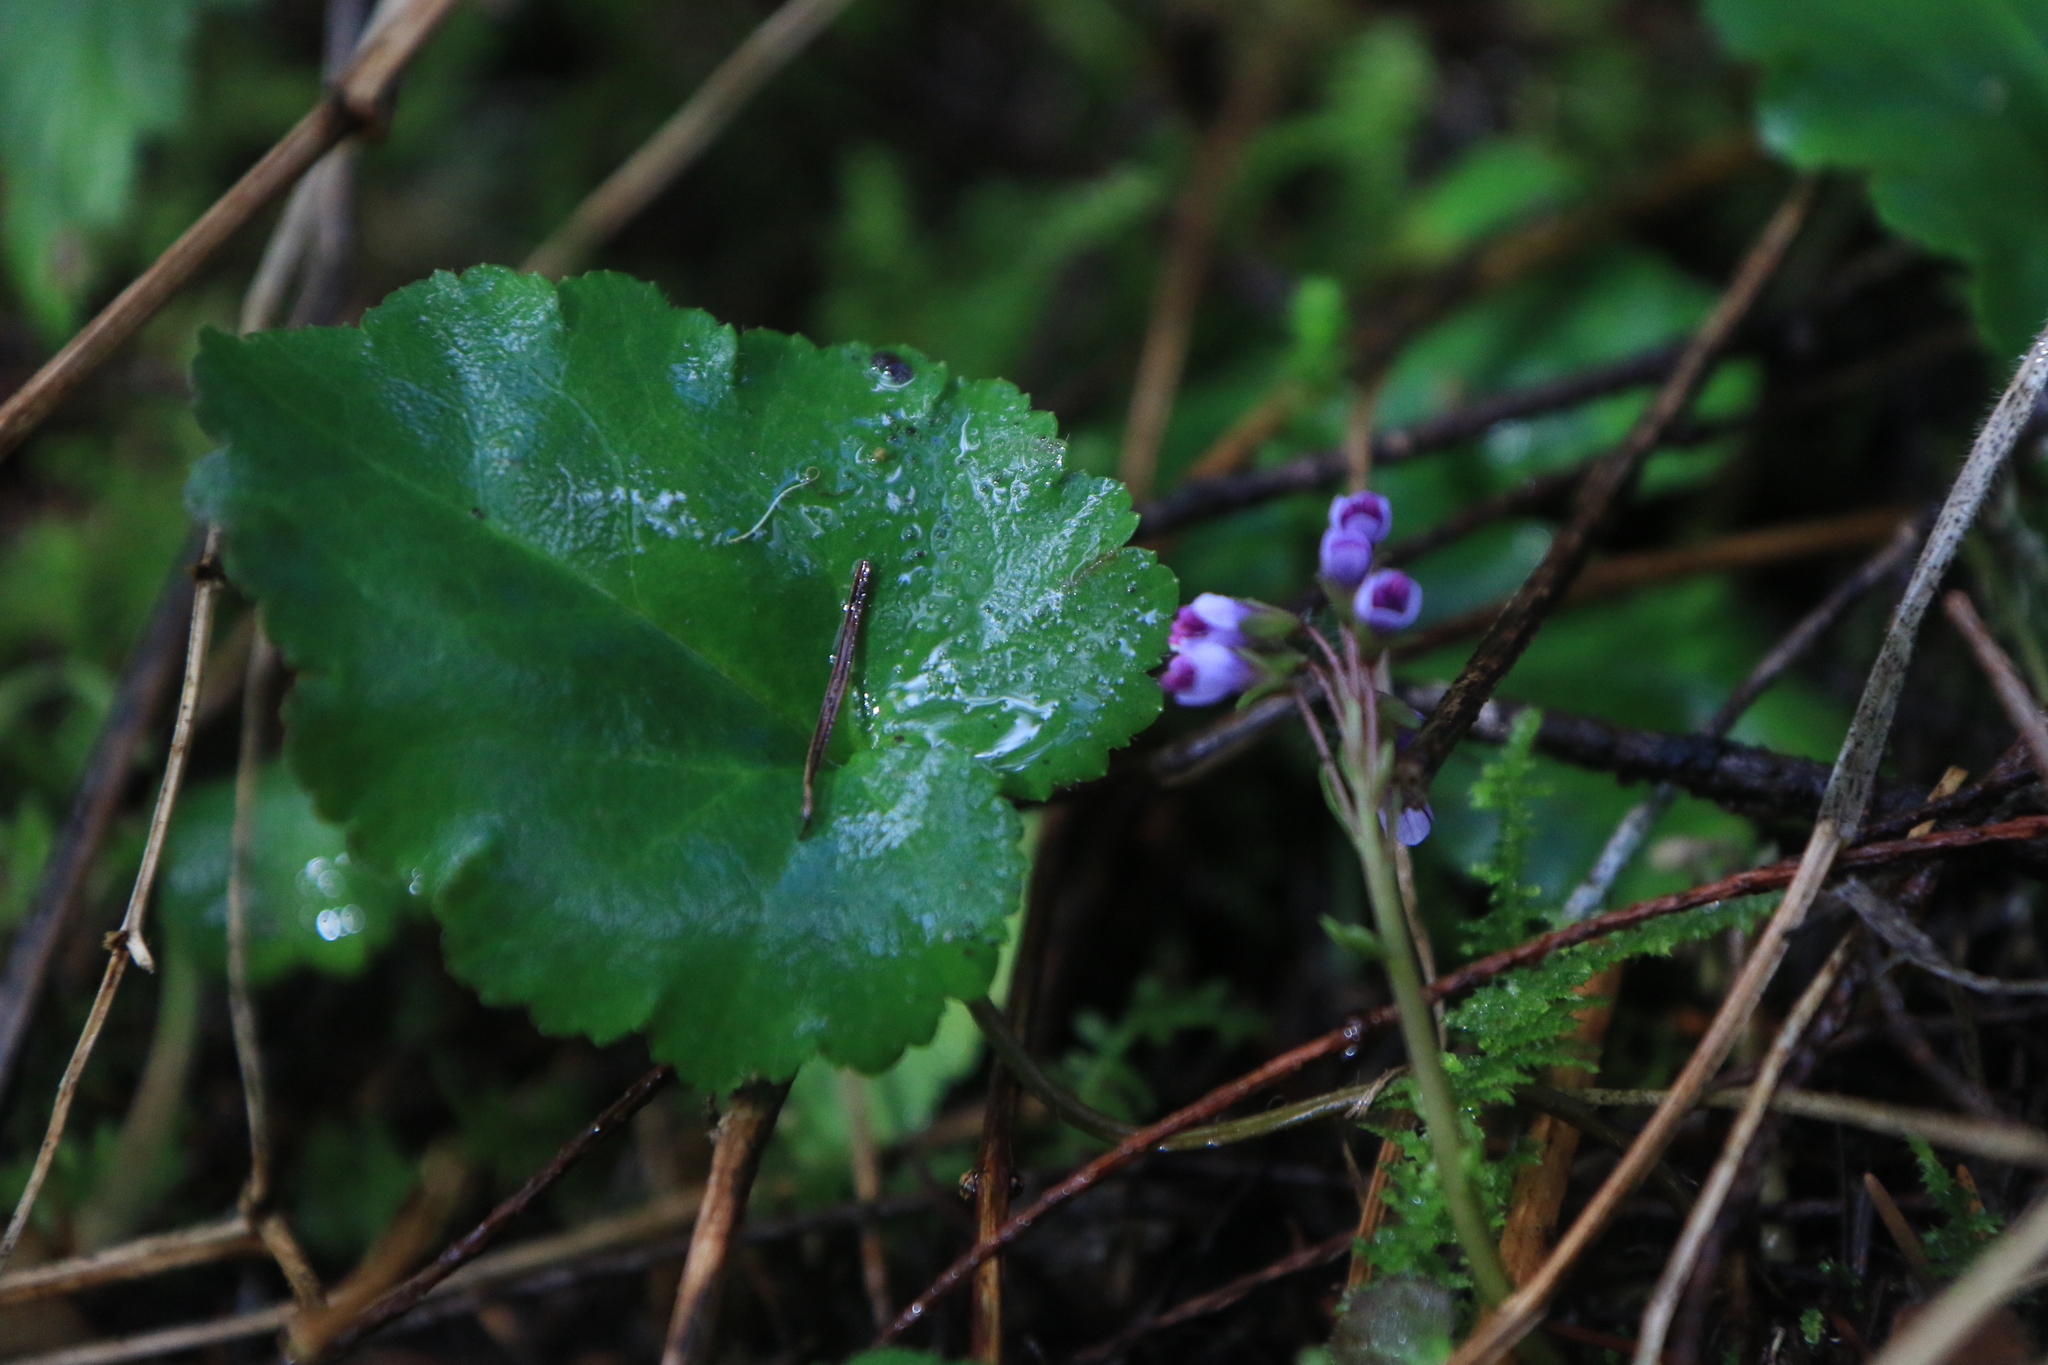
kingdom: Plantae
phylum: Tracheophyta
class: Magnoliopsida
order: Lamiales
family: Plantaginaceae
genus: Synthyris
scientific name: Synthyris reniformis
